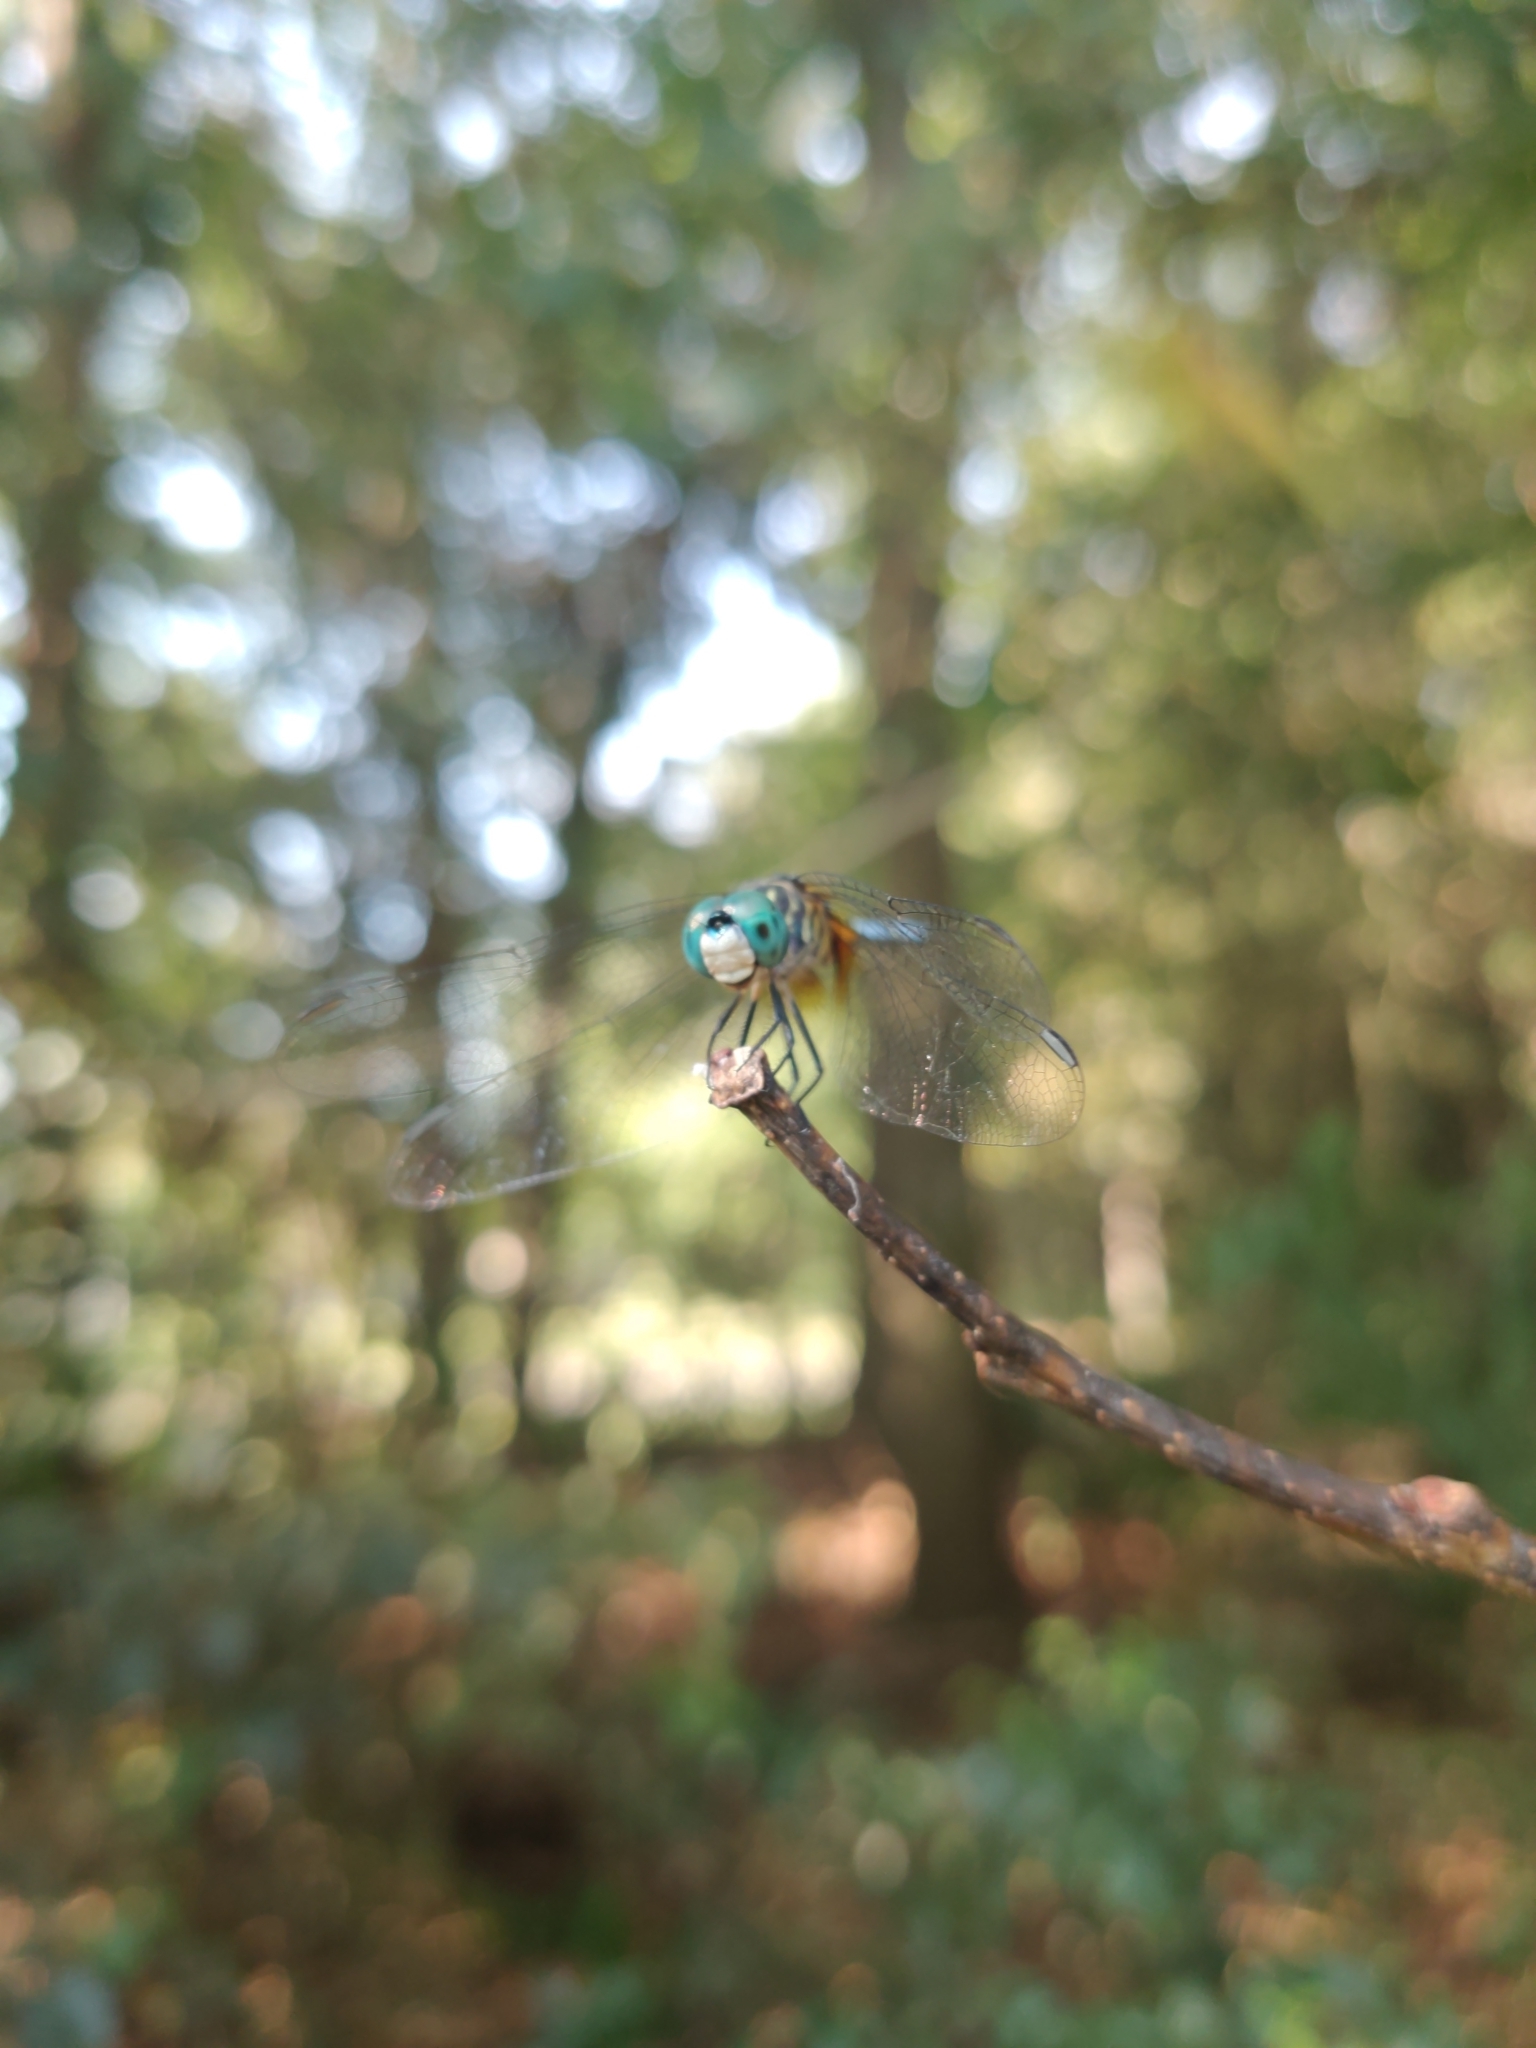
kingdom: Animalia
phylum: Arthropoda
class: Insecta
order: Odonata
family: Libellulidae
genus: Pachydiplax
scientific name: Pachydiplax longipennis
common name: Blue dasher
